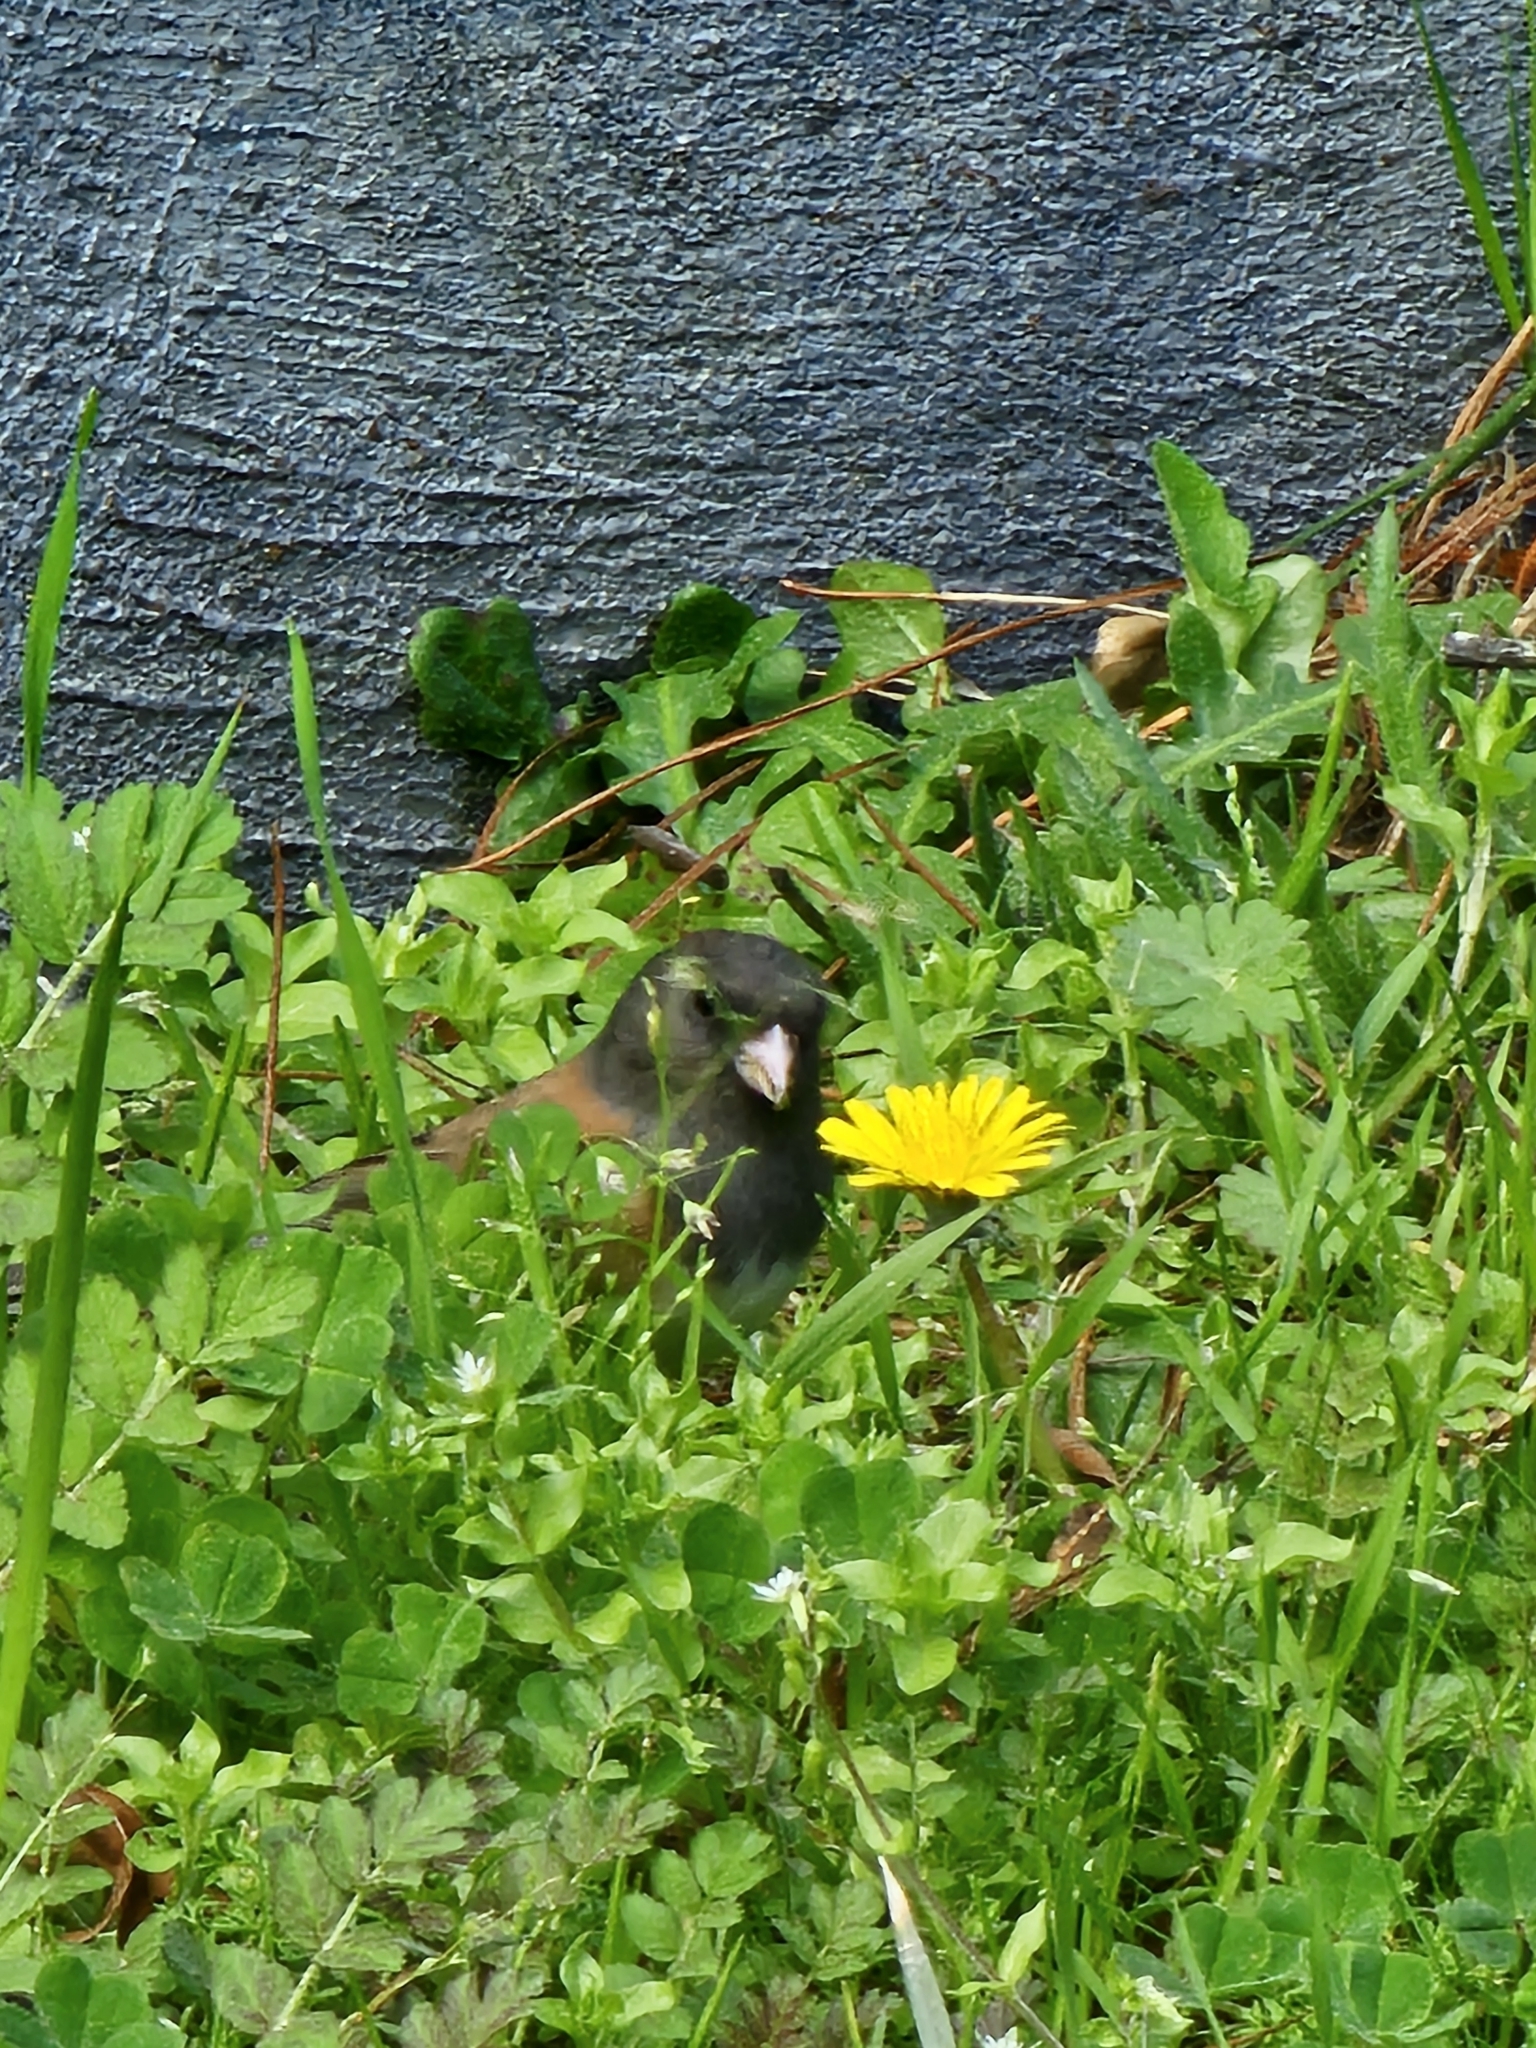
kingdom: Animalia
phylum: Chordata
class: Aves
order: Passeriformes
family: Passerellidae
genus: Junco
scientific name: Junco hyemalis
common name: Dark-eyed junco
